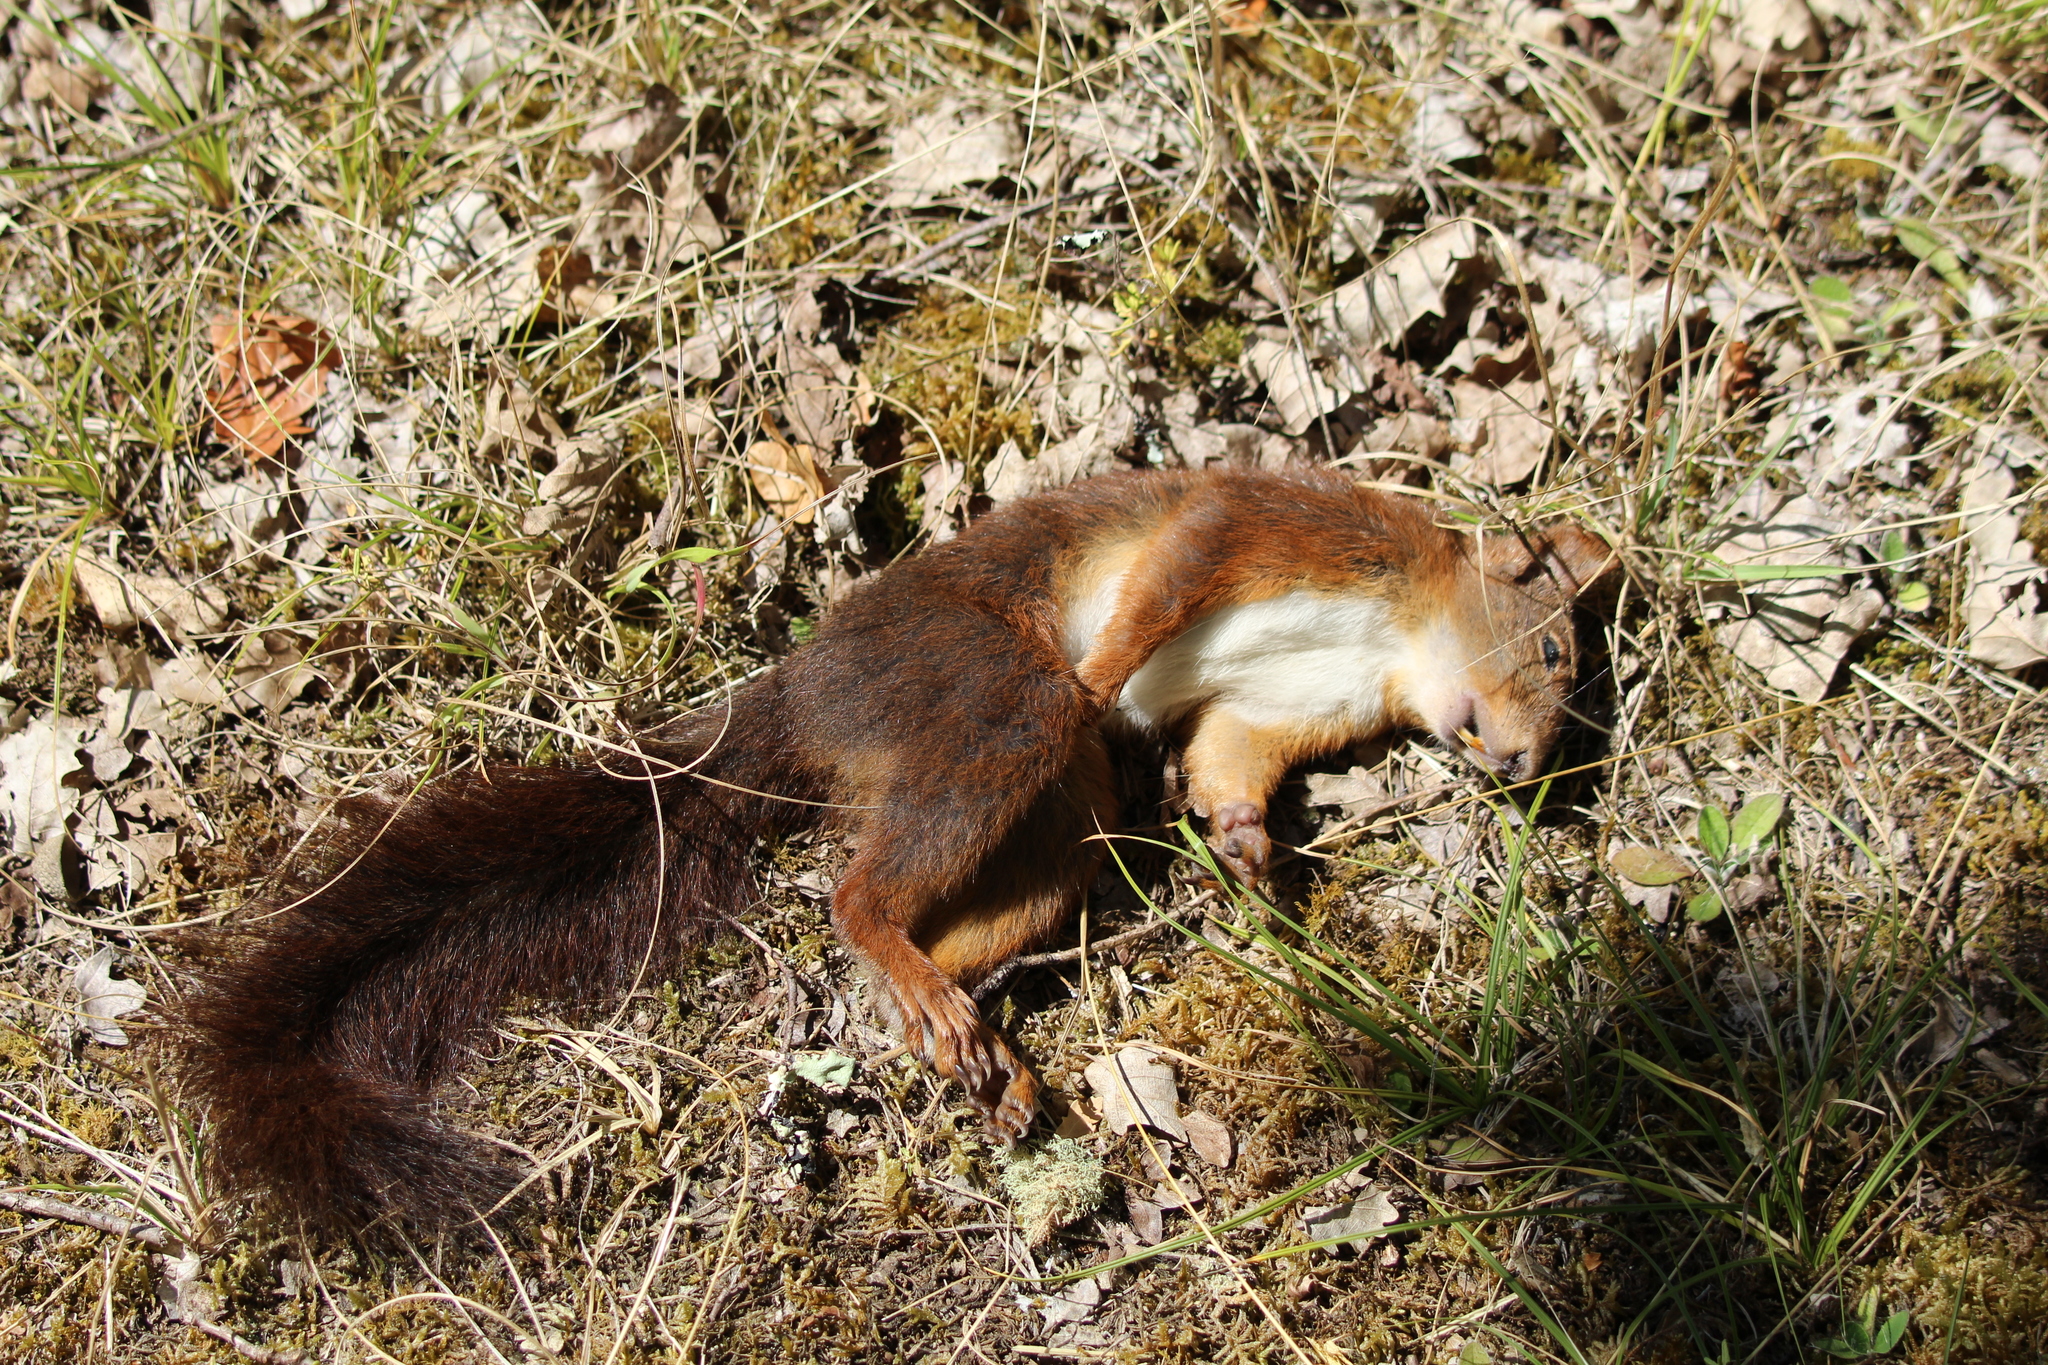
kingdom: Animalia
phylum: Chordata
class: Mammalia
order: Rodentia
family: Sciuridae
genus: Sciurus
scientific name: Sciurus vulgaris
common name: Eurasian red squirrel
